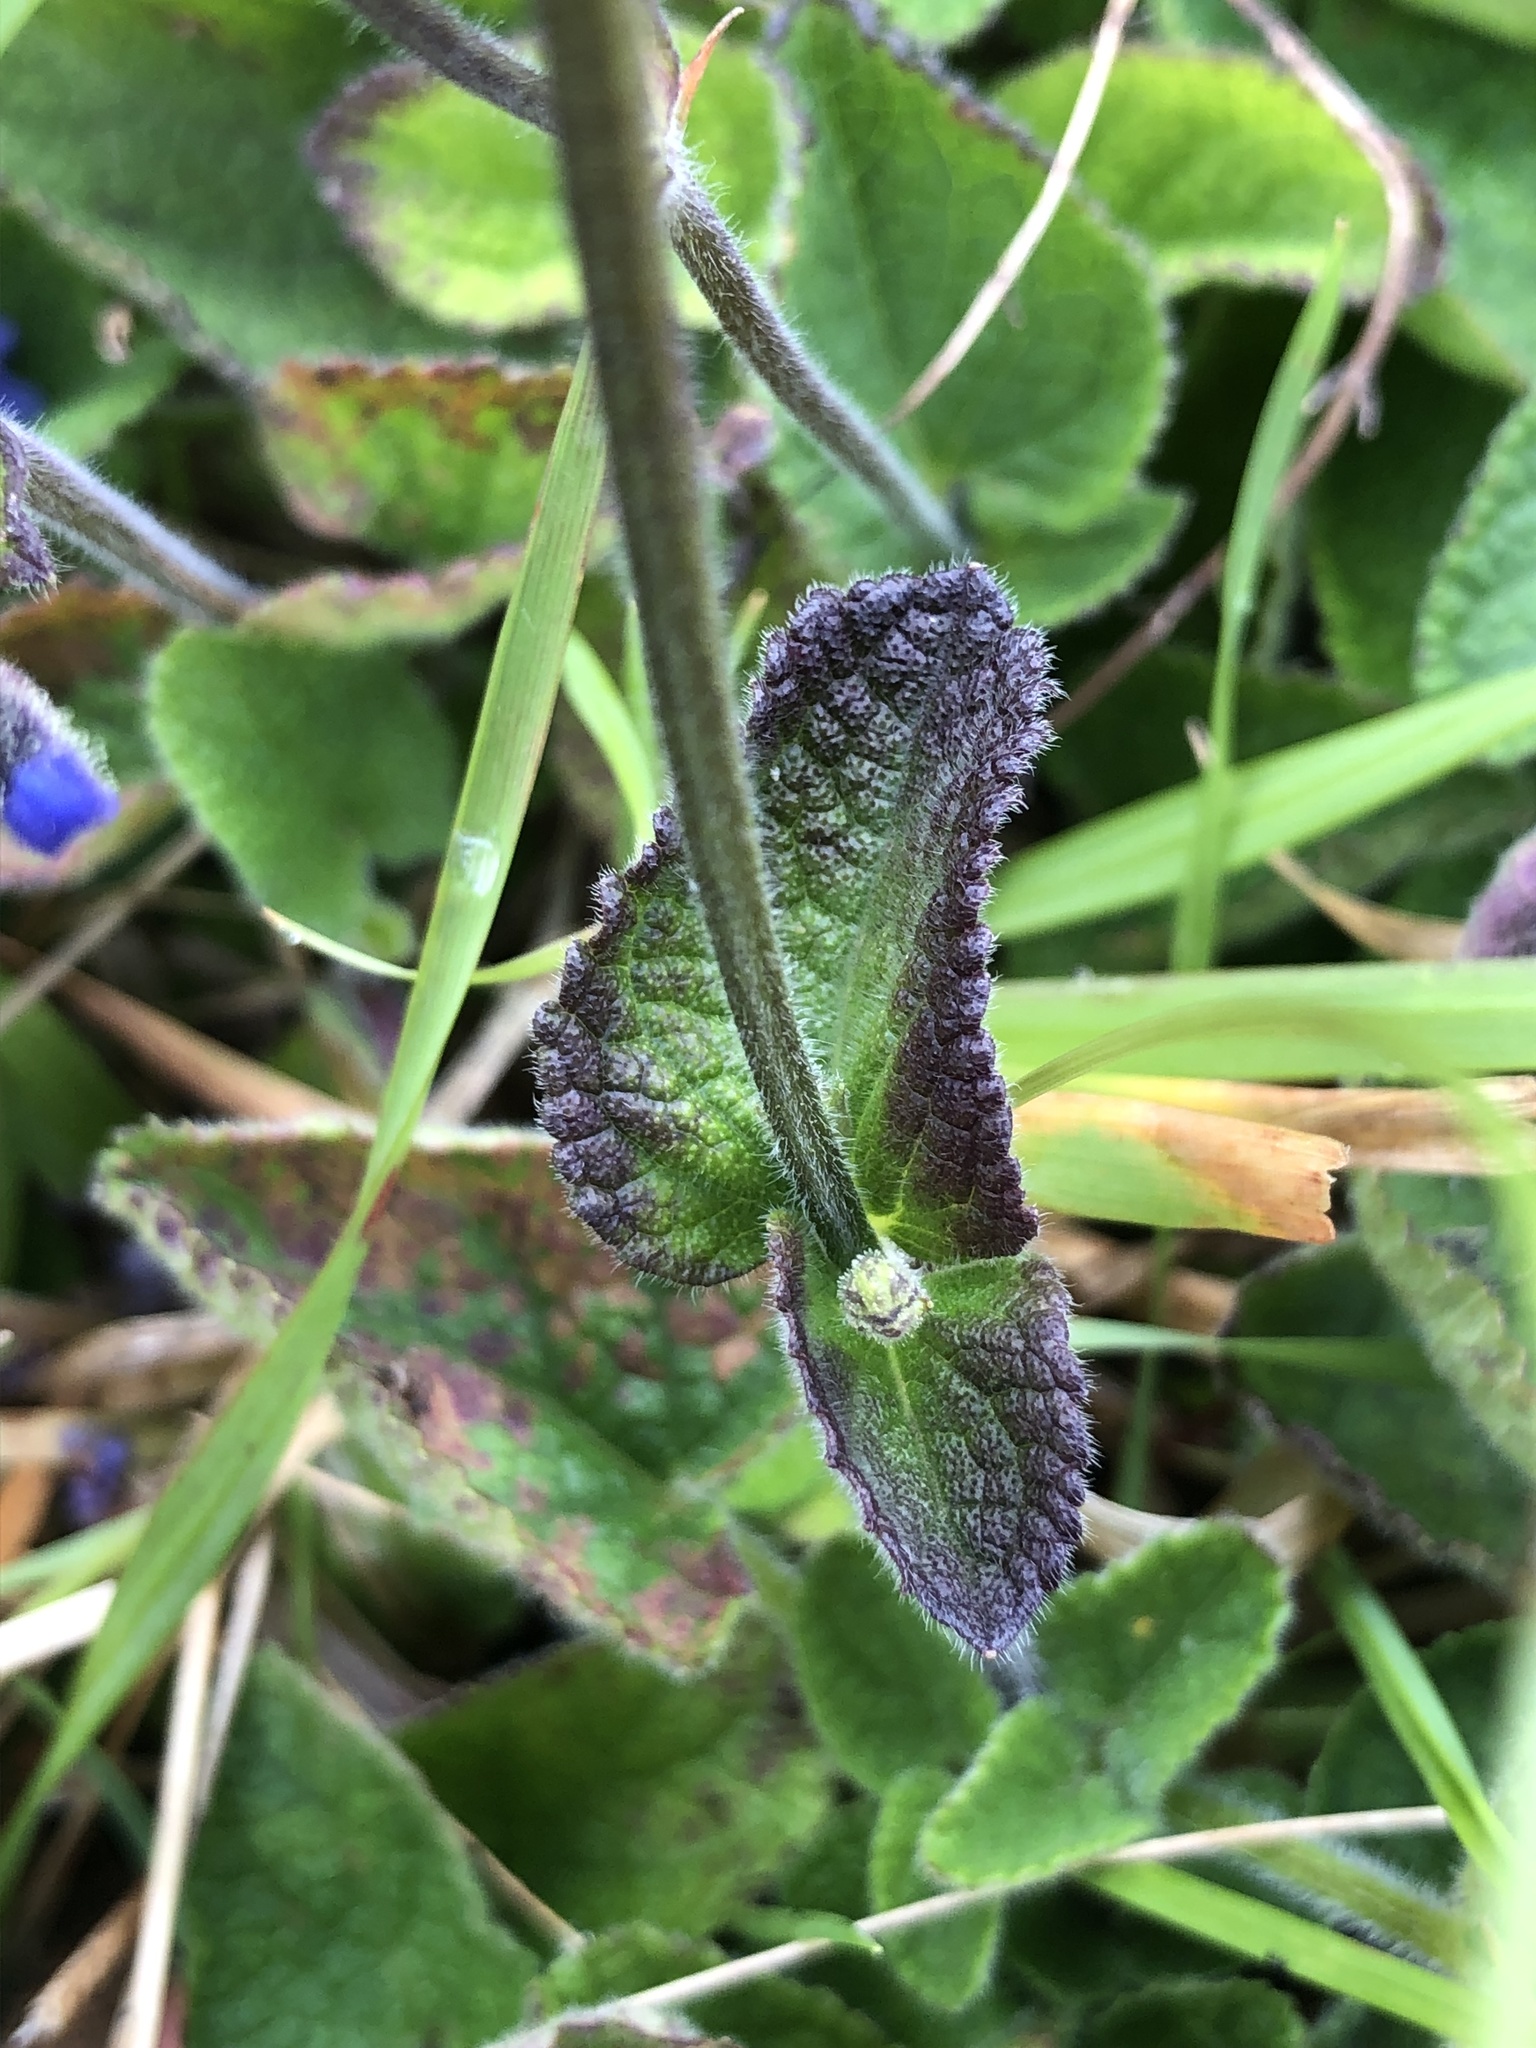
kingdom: Plantae
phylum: Tracheophyta
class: Magnoliopsida
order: Lamiales
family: Lamiaceae
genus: Salvia
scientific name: Salvia palifolia
